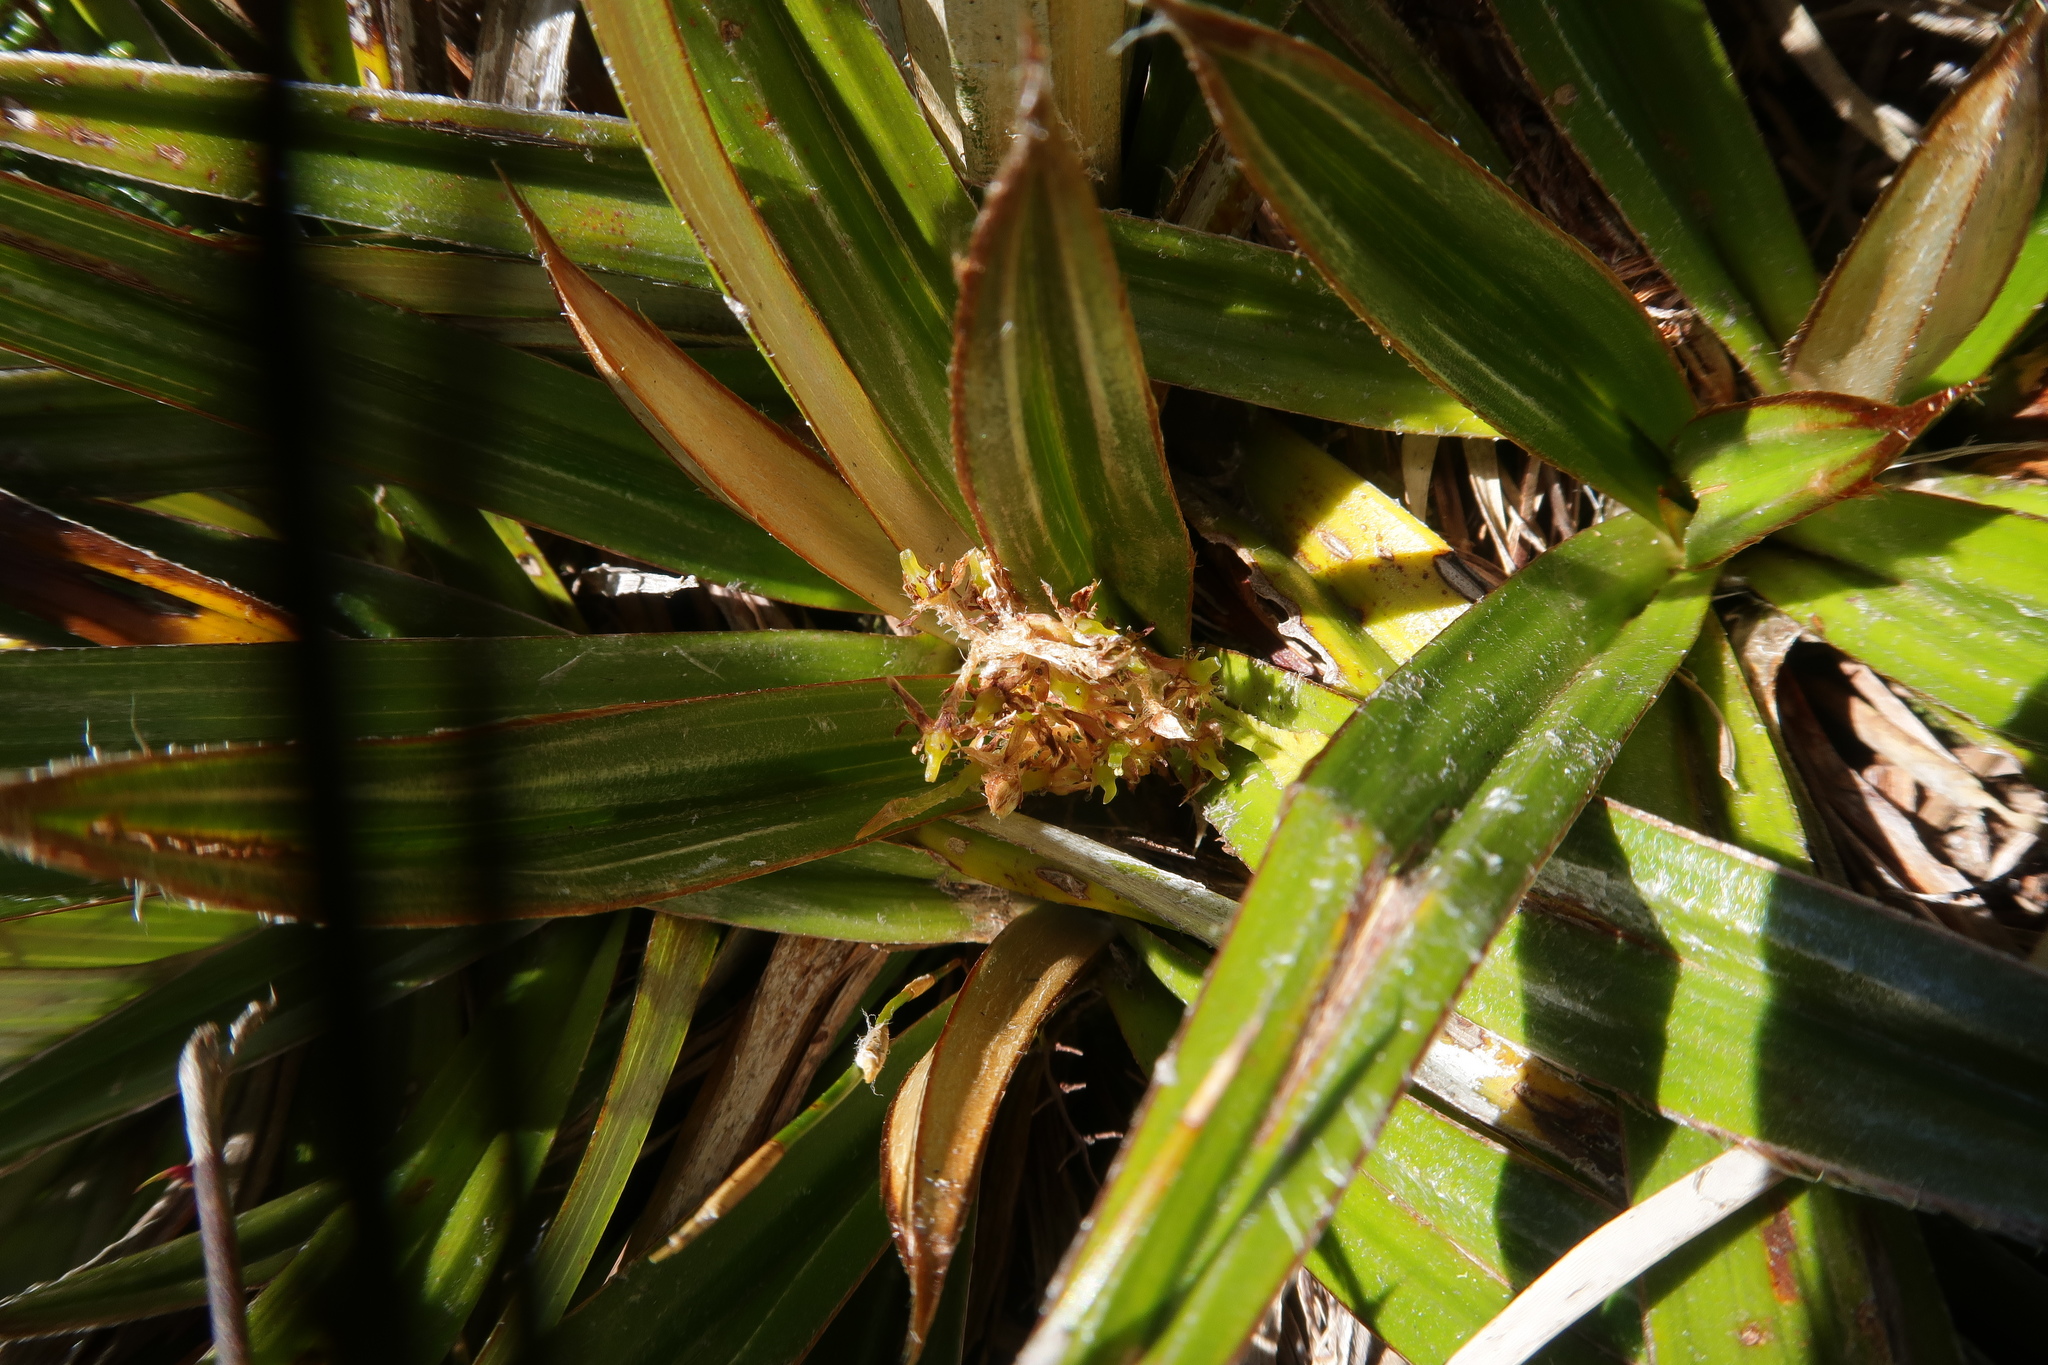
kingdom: Plantae
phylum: Tracheophyta
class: Liliopsida
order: Asparagales
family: Asteliaceae
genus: Astelia
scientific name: Astelia alpina
